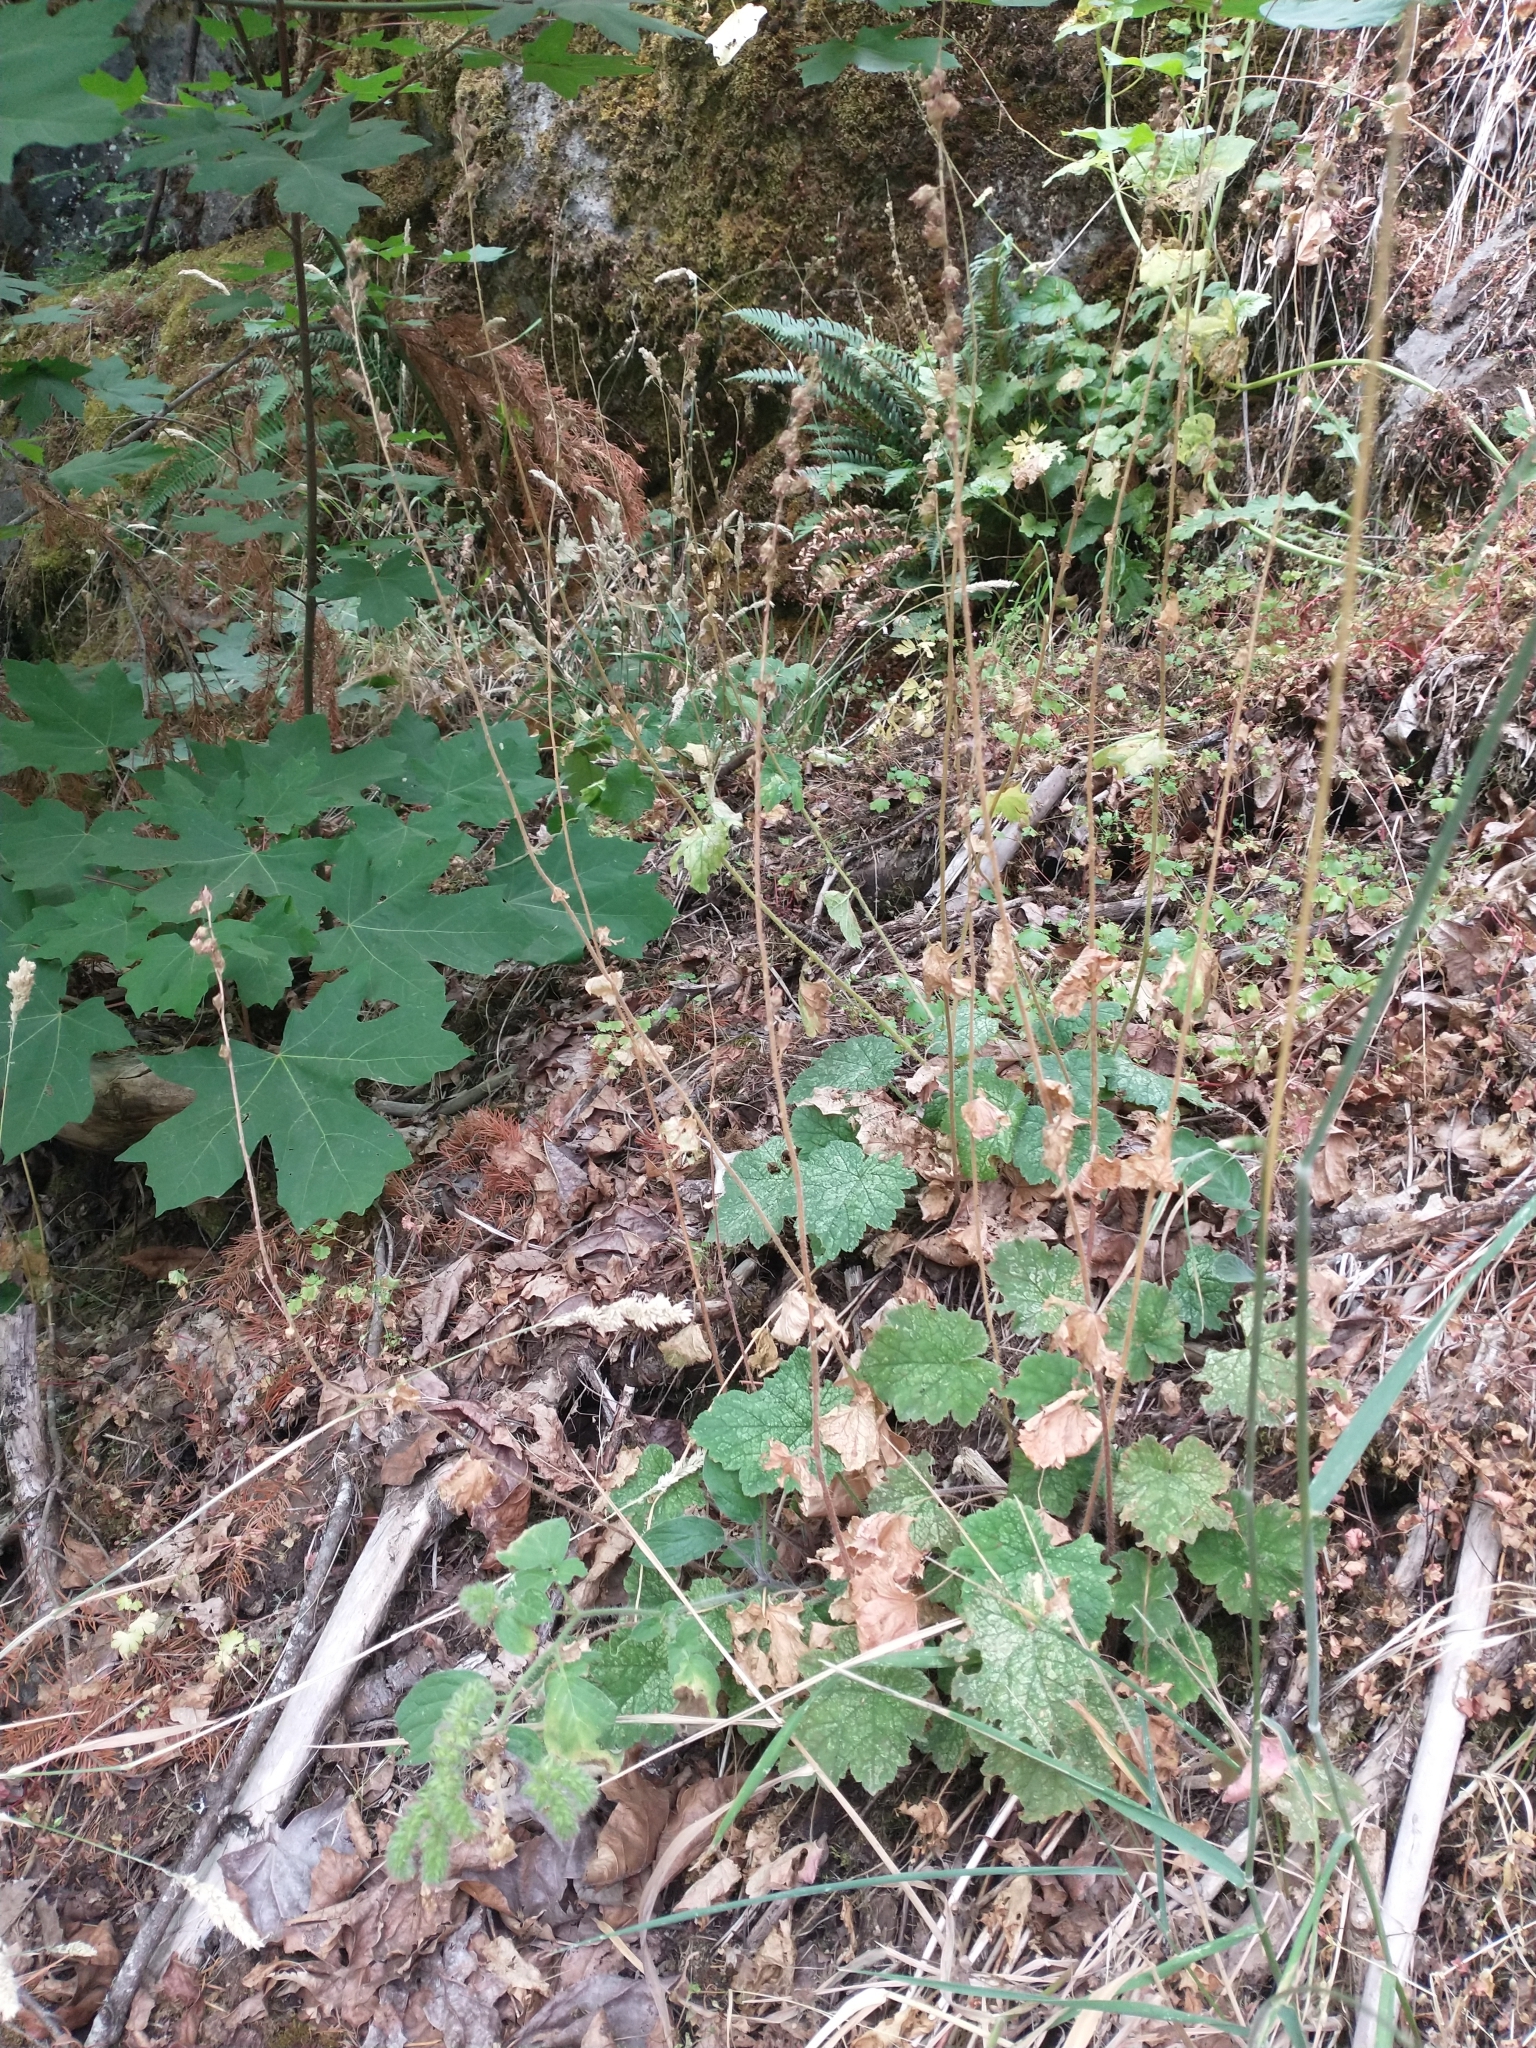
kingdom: Plantae
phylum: Tracheophyta
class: Magnoliopsida
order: Saxifragales
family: Saxifragaceae
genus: Tellima
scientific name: Tellima grandiflora
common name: Fringecups
